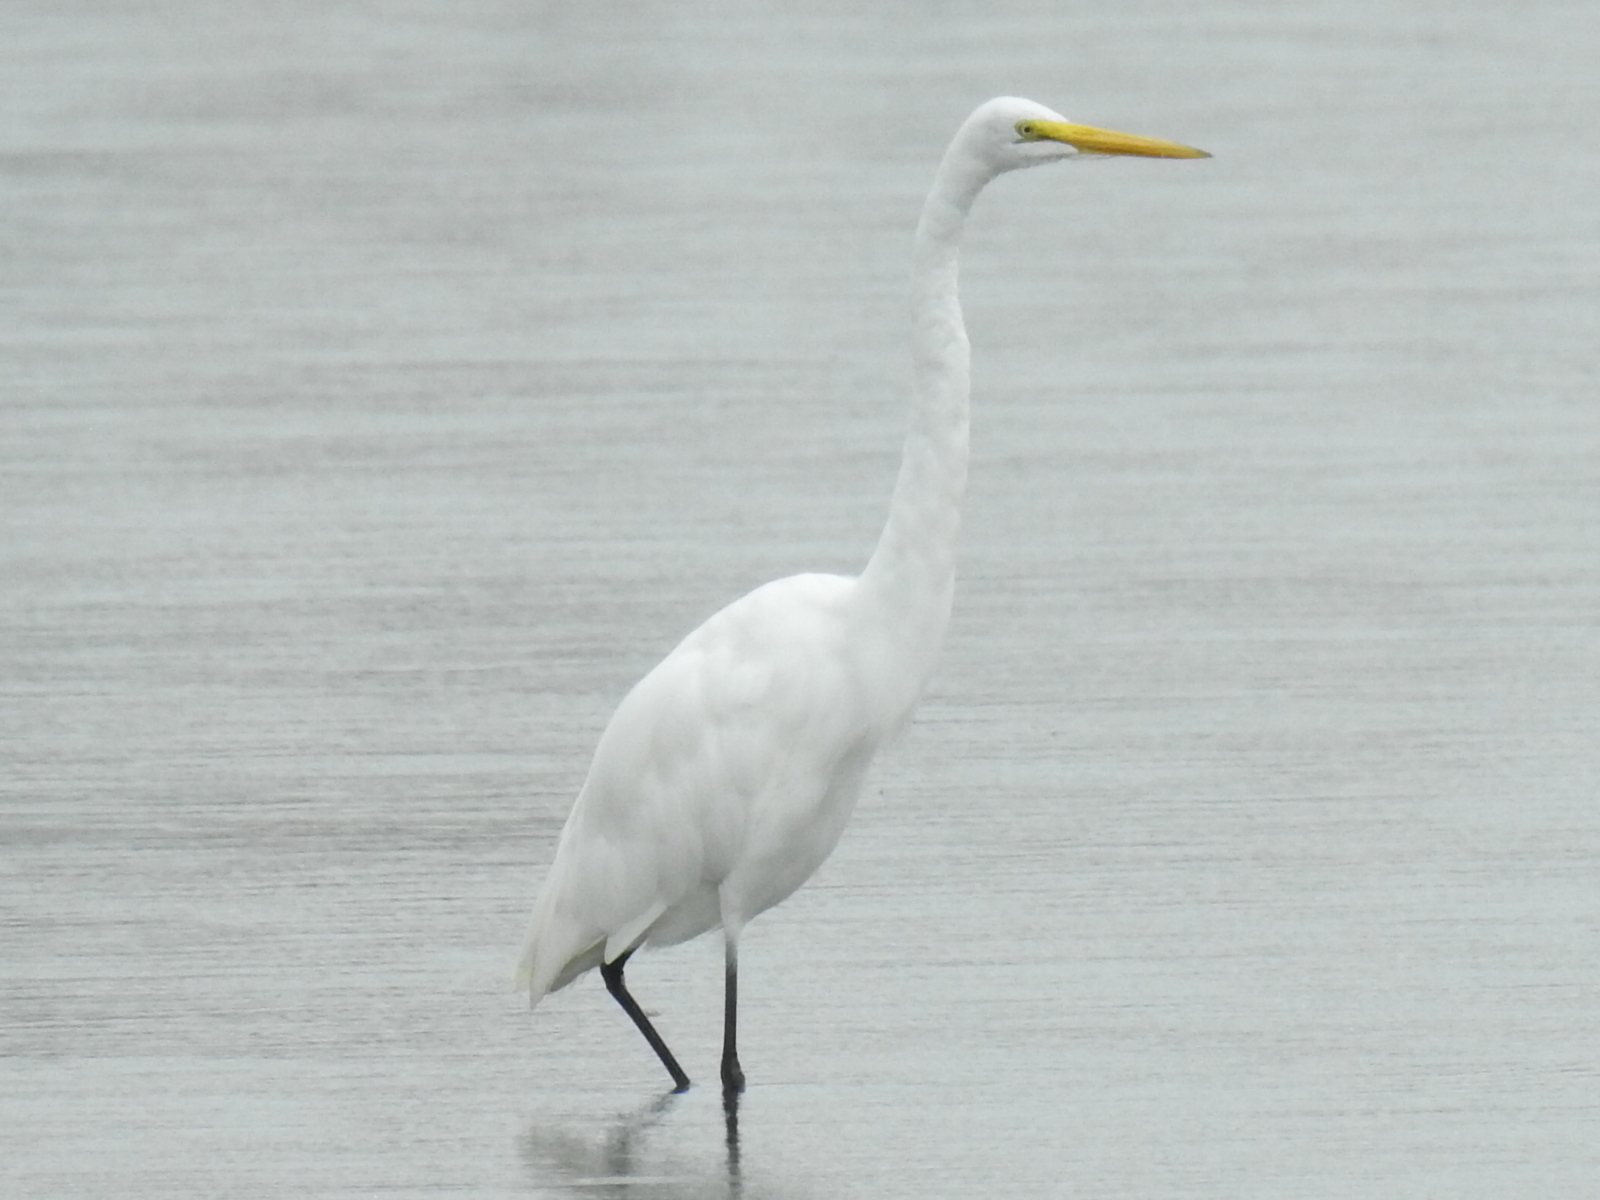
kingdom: Animalia
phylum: Chordata
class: Aves
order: Pelecaniformes
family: Ardeidae
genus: Ardea
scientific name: Ardea alba
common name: Great egret
